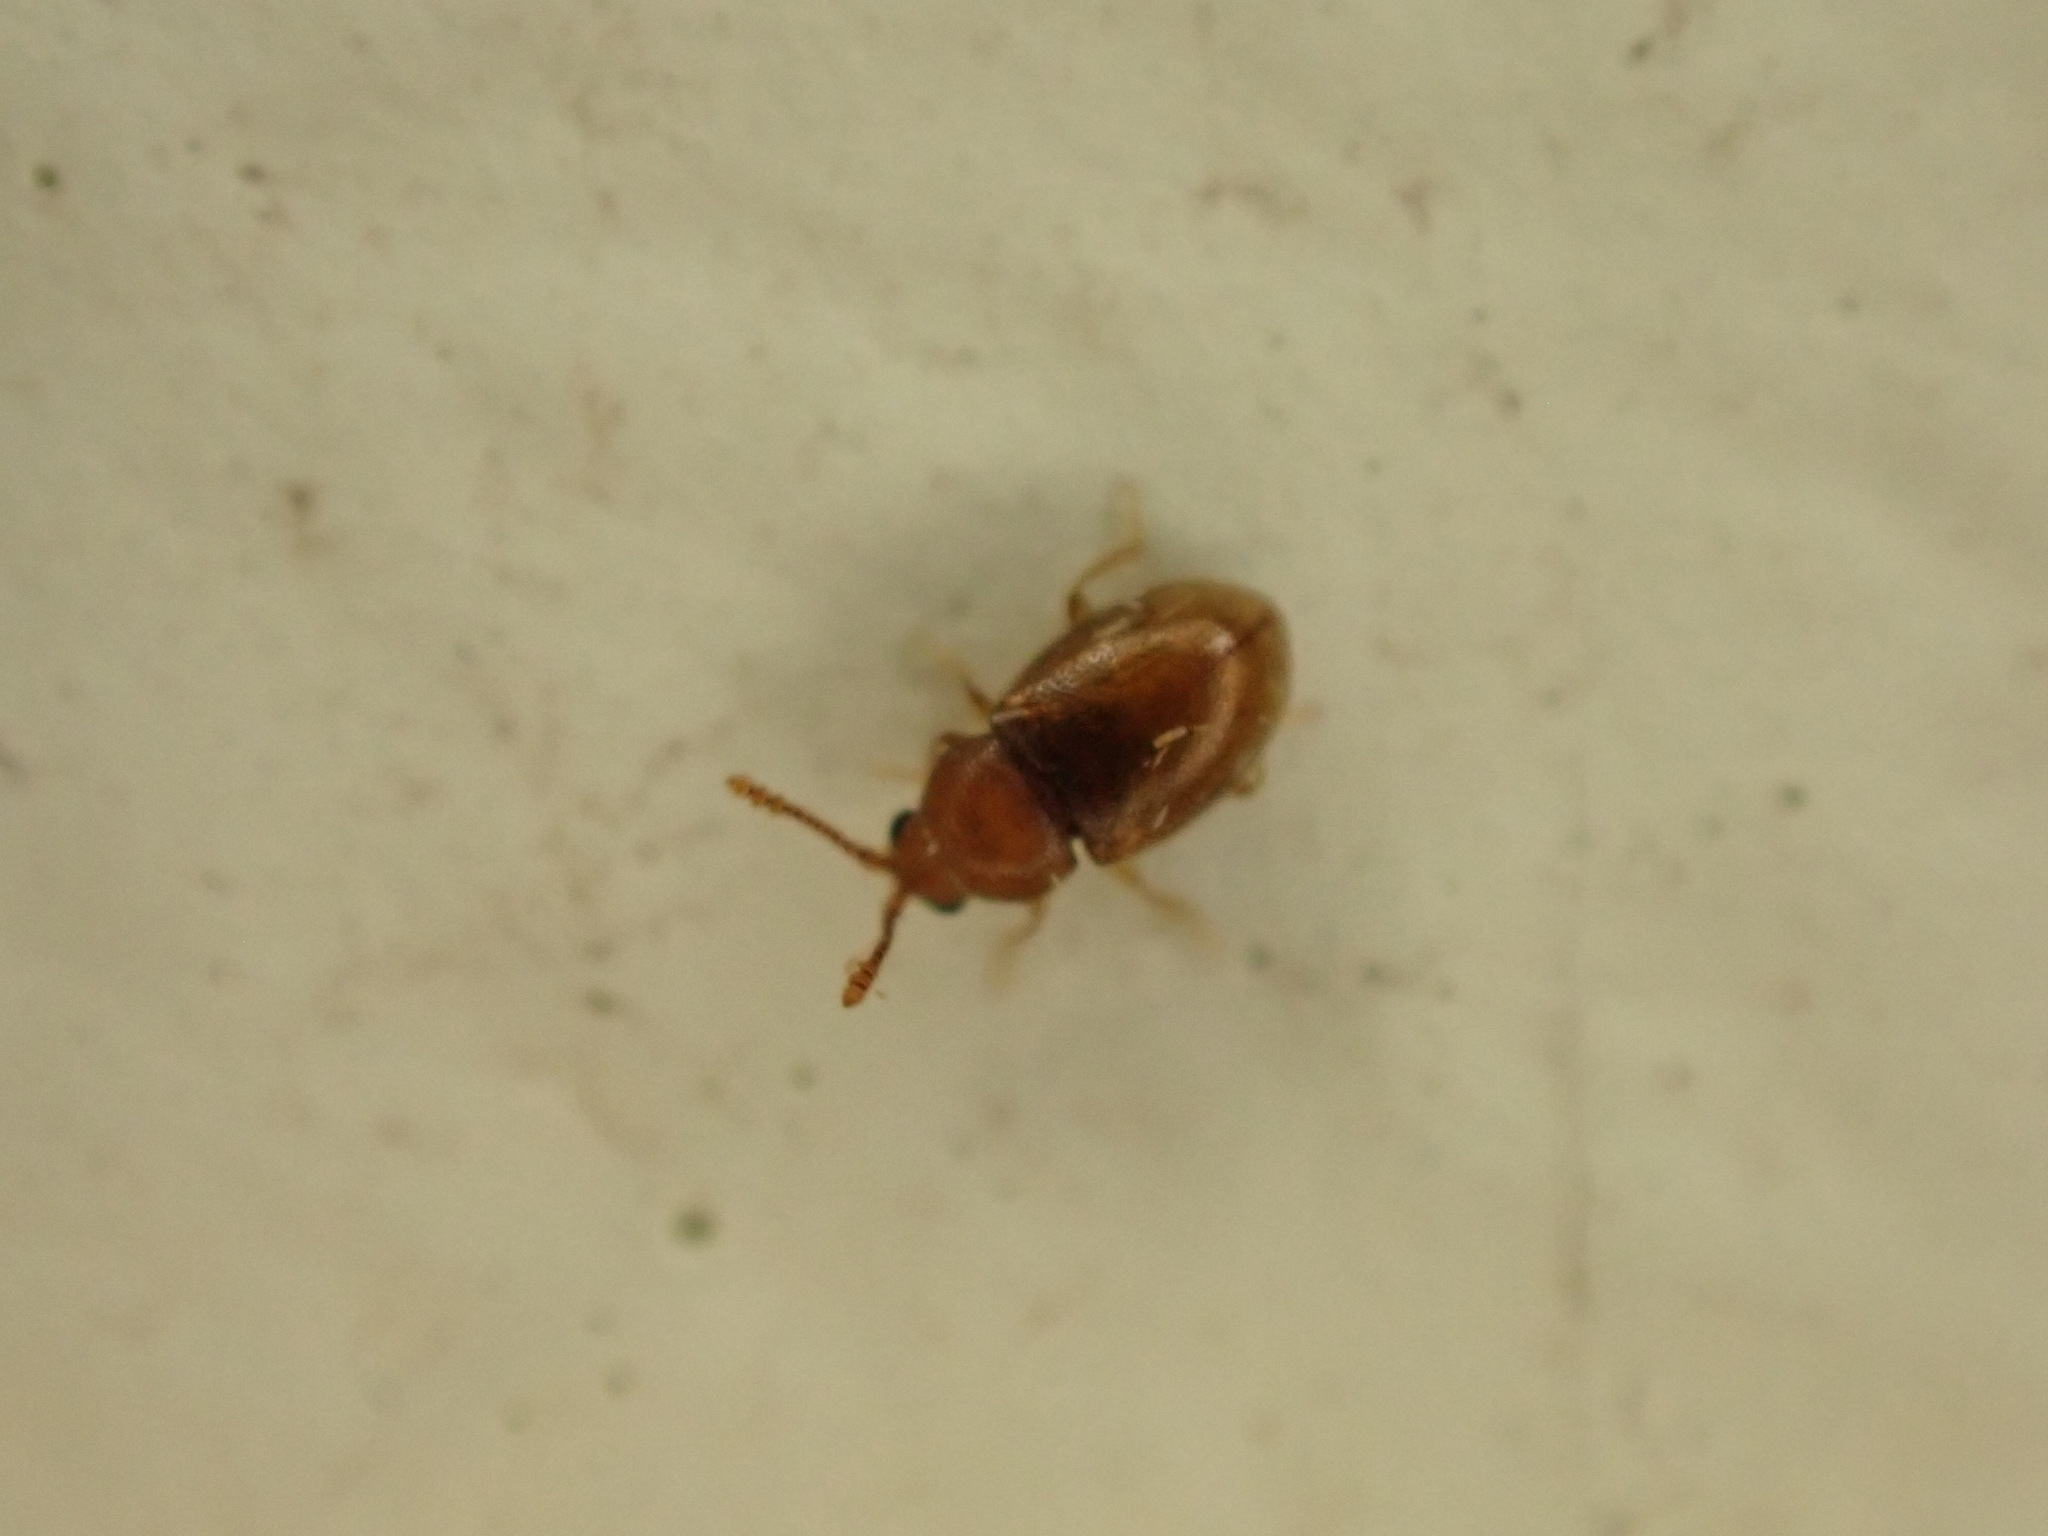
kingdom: Animalia
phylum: Arthropoda
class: Insecta
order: Coleoptera
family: Cryptophagidae
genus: Atomaria
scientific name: Atomaria lewisi
